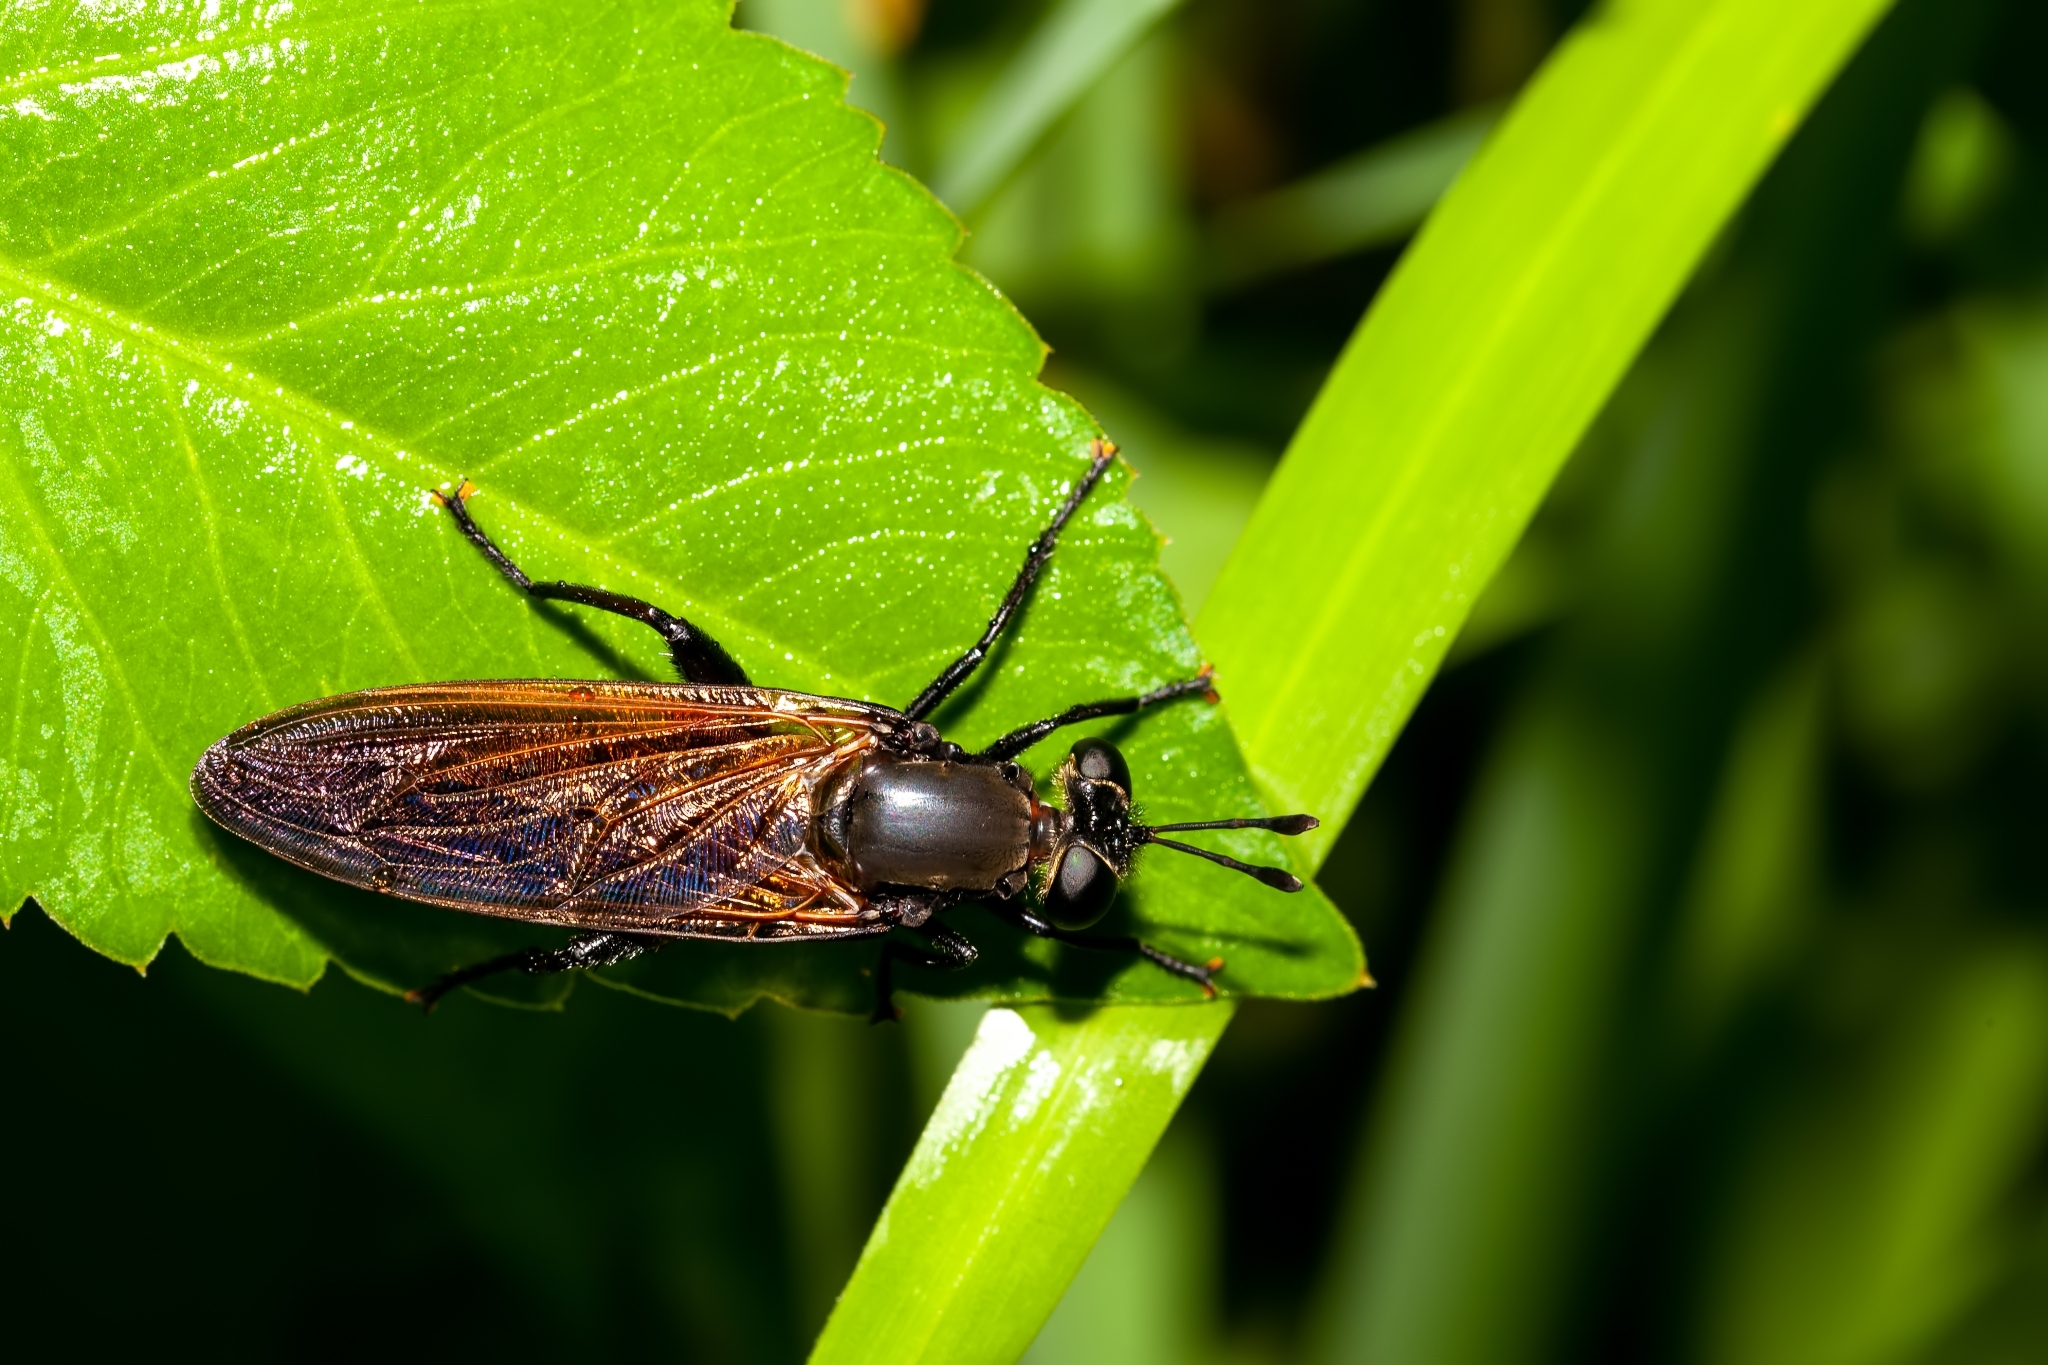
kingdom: Animalia
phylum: Arthropoda
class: Insecta
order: Diptera
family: Mydidae
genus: Mydas
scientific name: Mydas maculiventris
